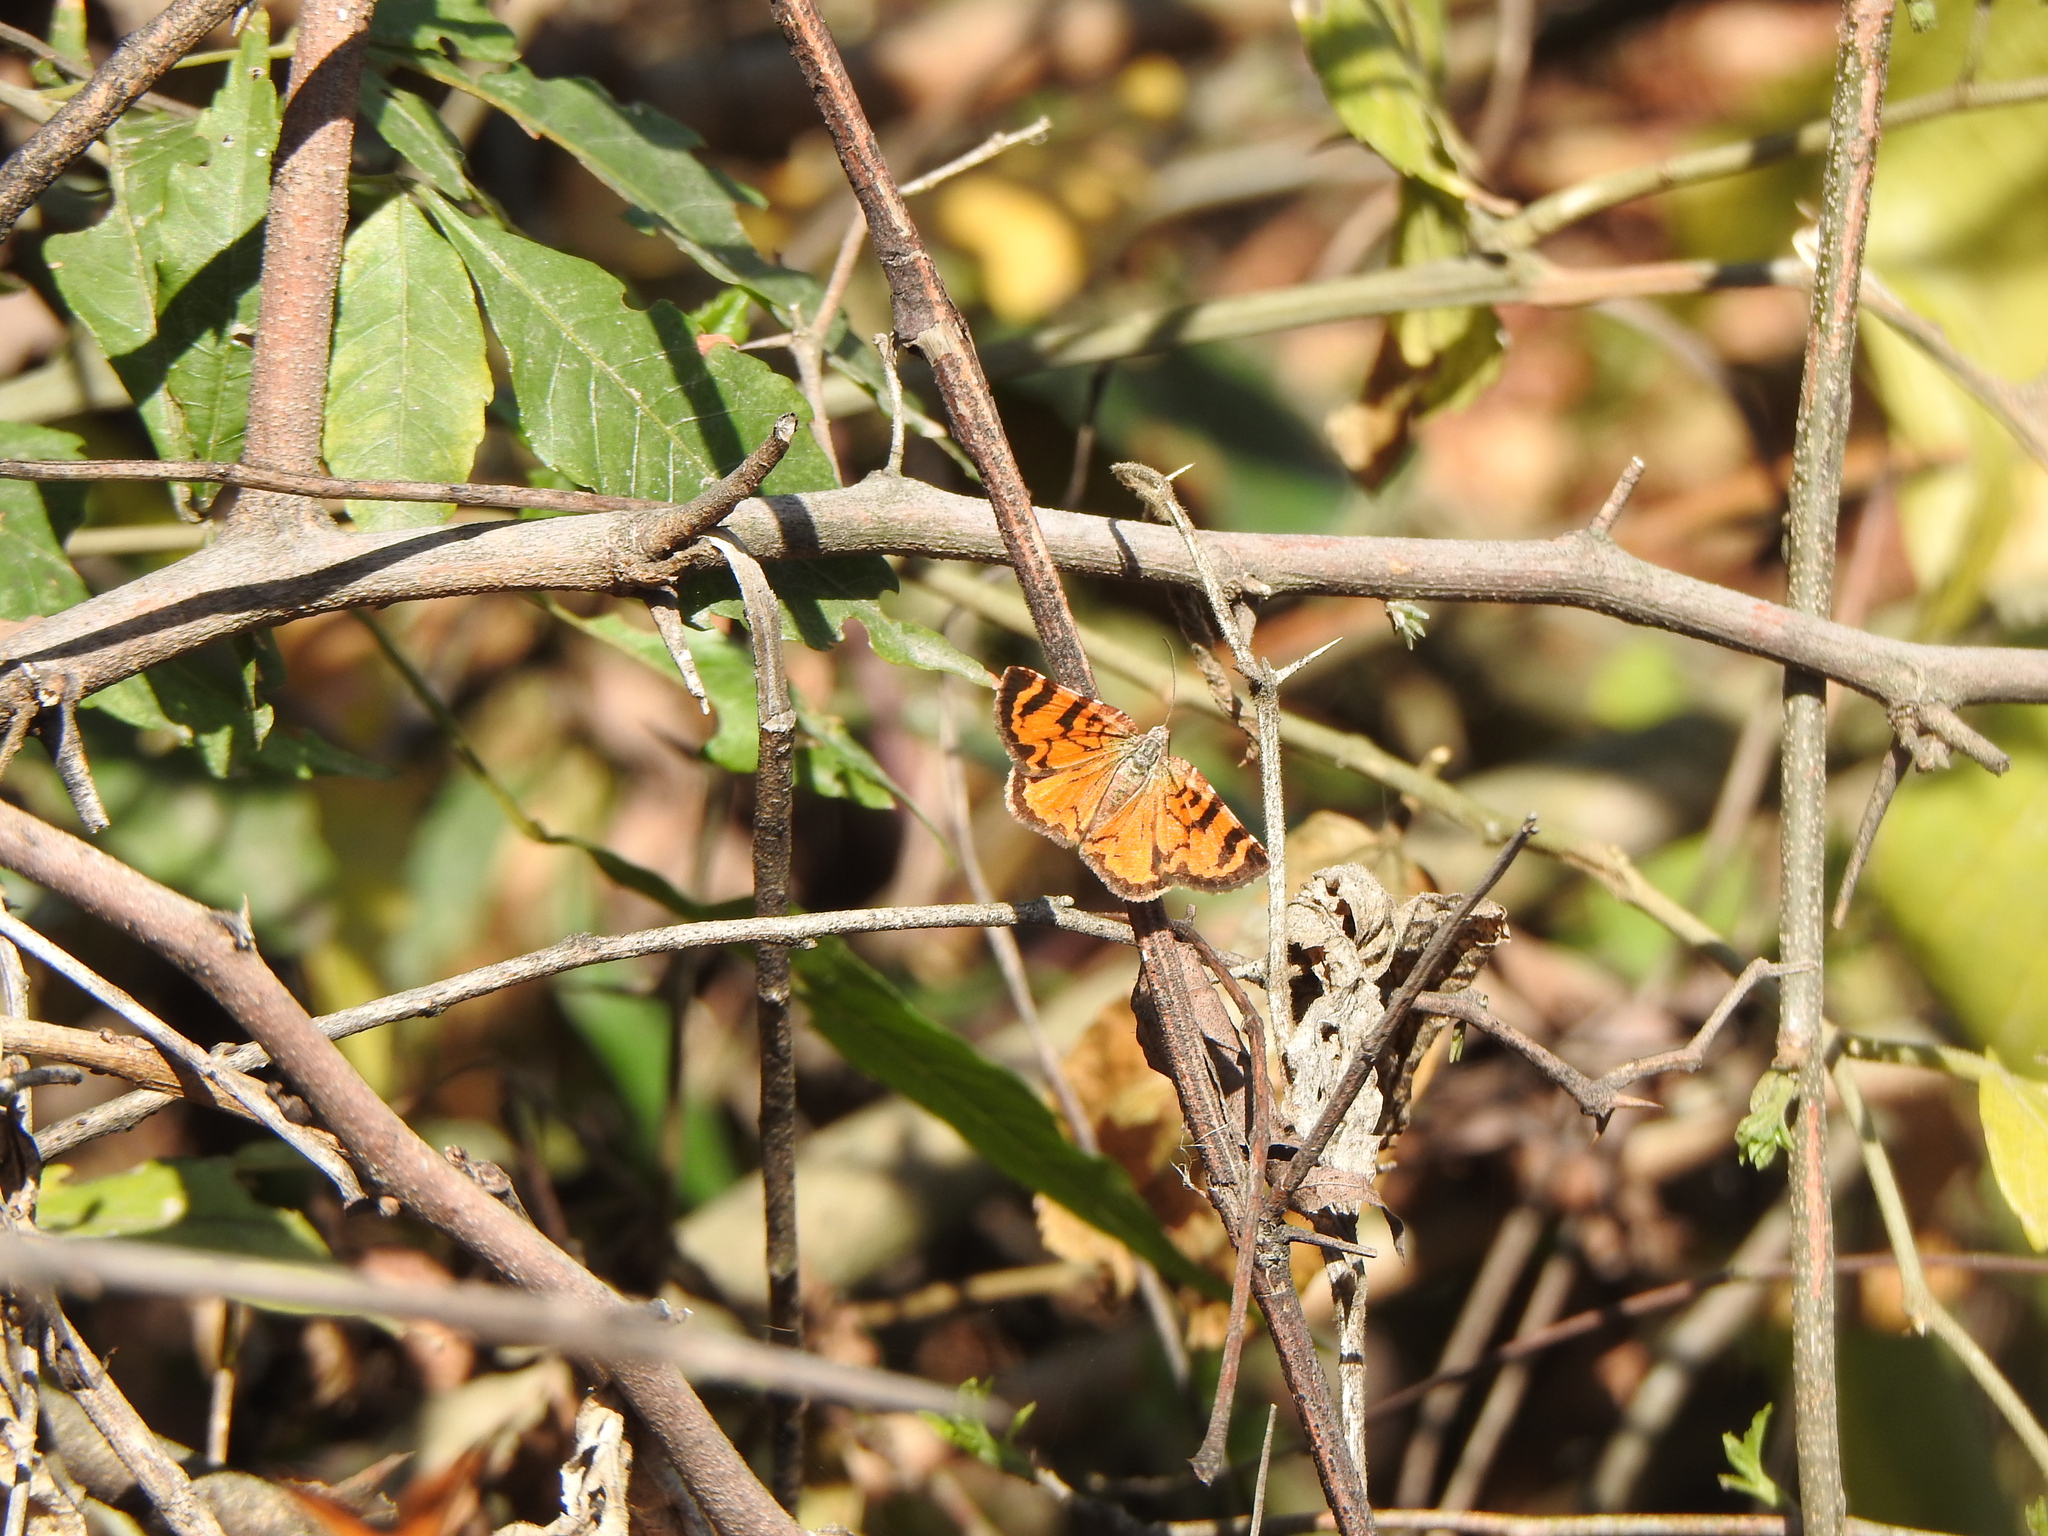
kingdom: Animalia
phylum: Arthropoda
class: Insecta
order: Lepidoptera
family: Geometridae
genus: Heterusia
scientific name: Heterusia cruciata
